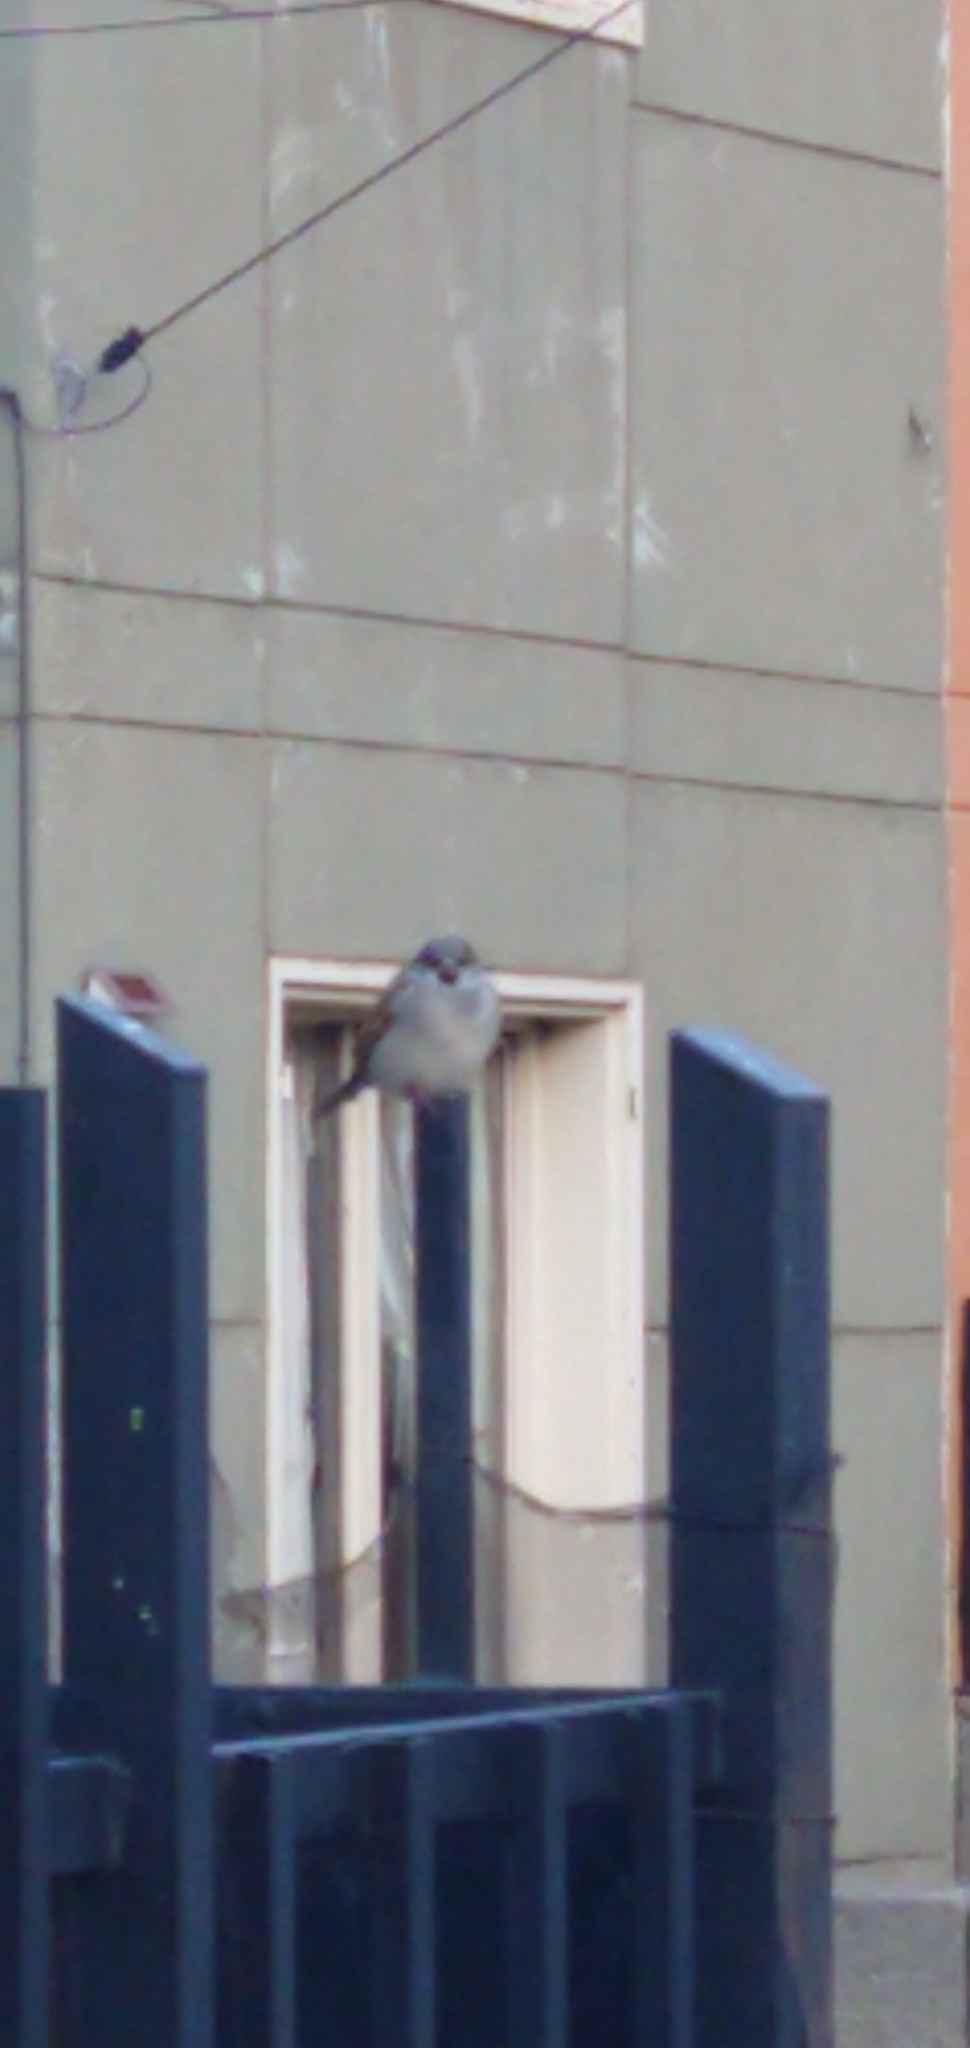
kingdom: Animalia
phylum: Chordata
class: Aves
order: Passeriformes
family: Passeridae
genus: Passer
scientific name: Passer domesticus
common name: House sparrow
